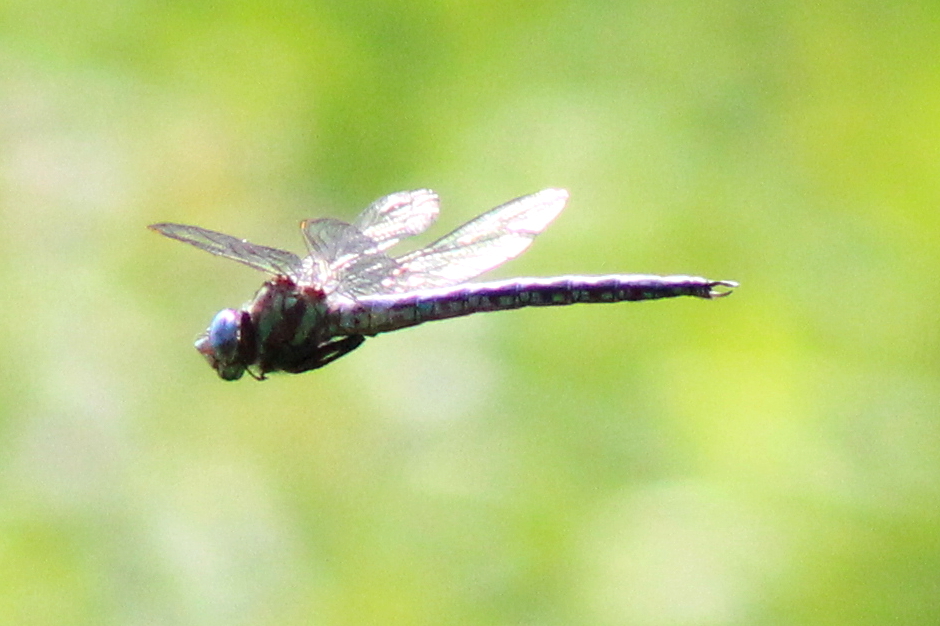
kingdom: Animalia
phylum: Arthropoda
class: Insecta
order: Odonata
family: Aeshnidae
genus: Nasiaeschna
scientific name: Nasiaeschna pentacantha
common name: Cyrano darner
